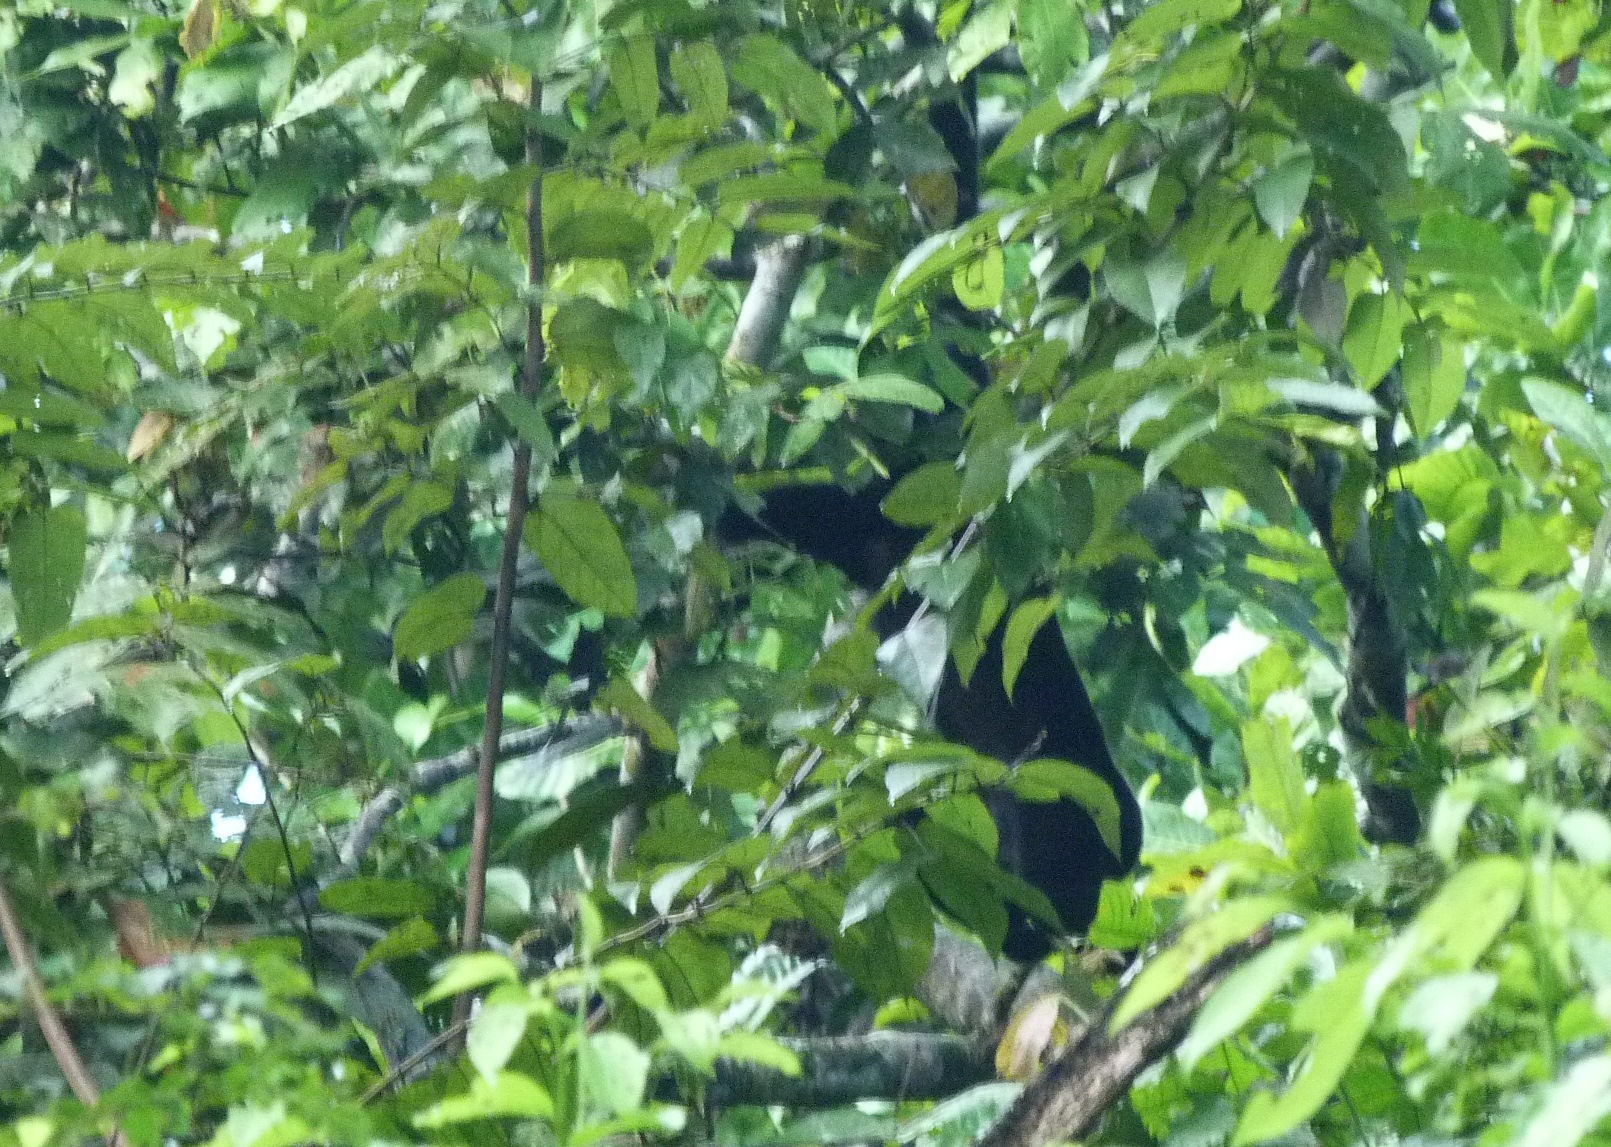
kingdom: Animalia
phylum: Chordata
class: Mammalia
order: Primates
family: Atelidae
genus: Alouatta
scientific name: Alouatta palliata
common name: Mantled howler
